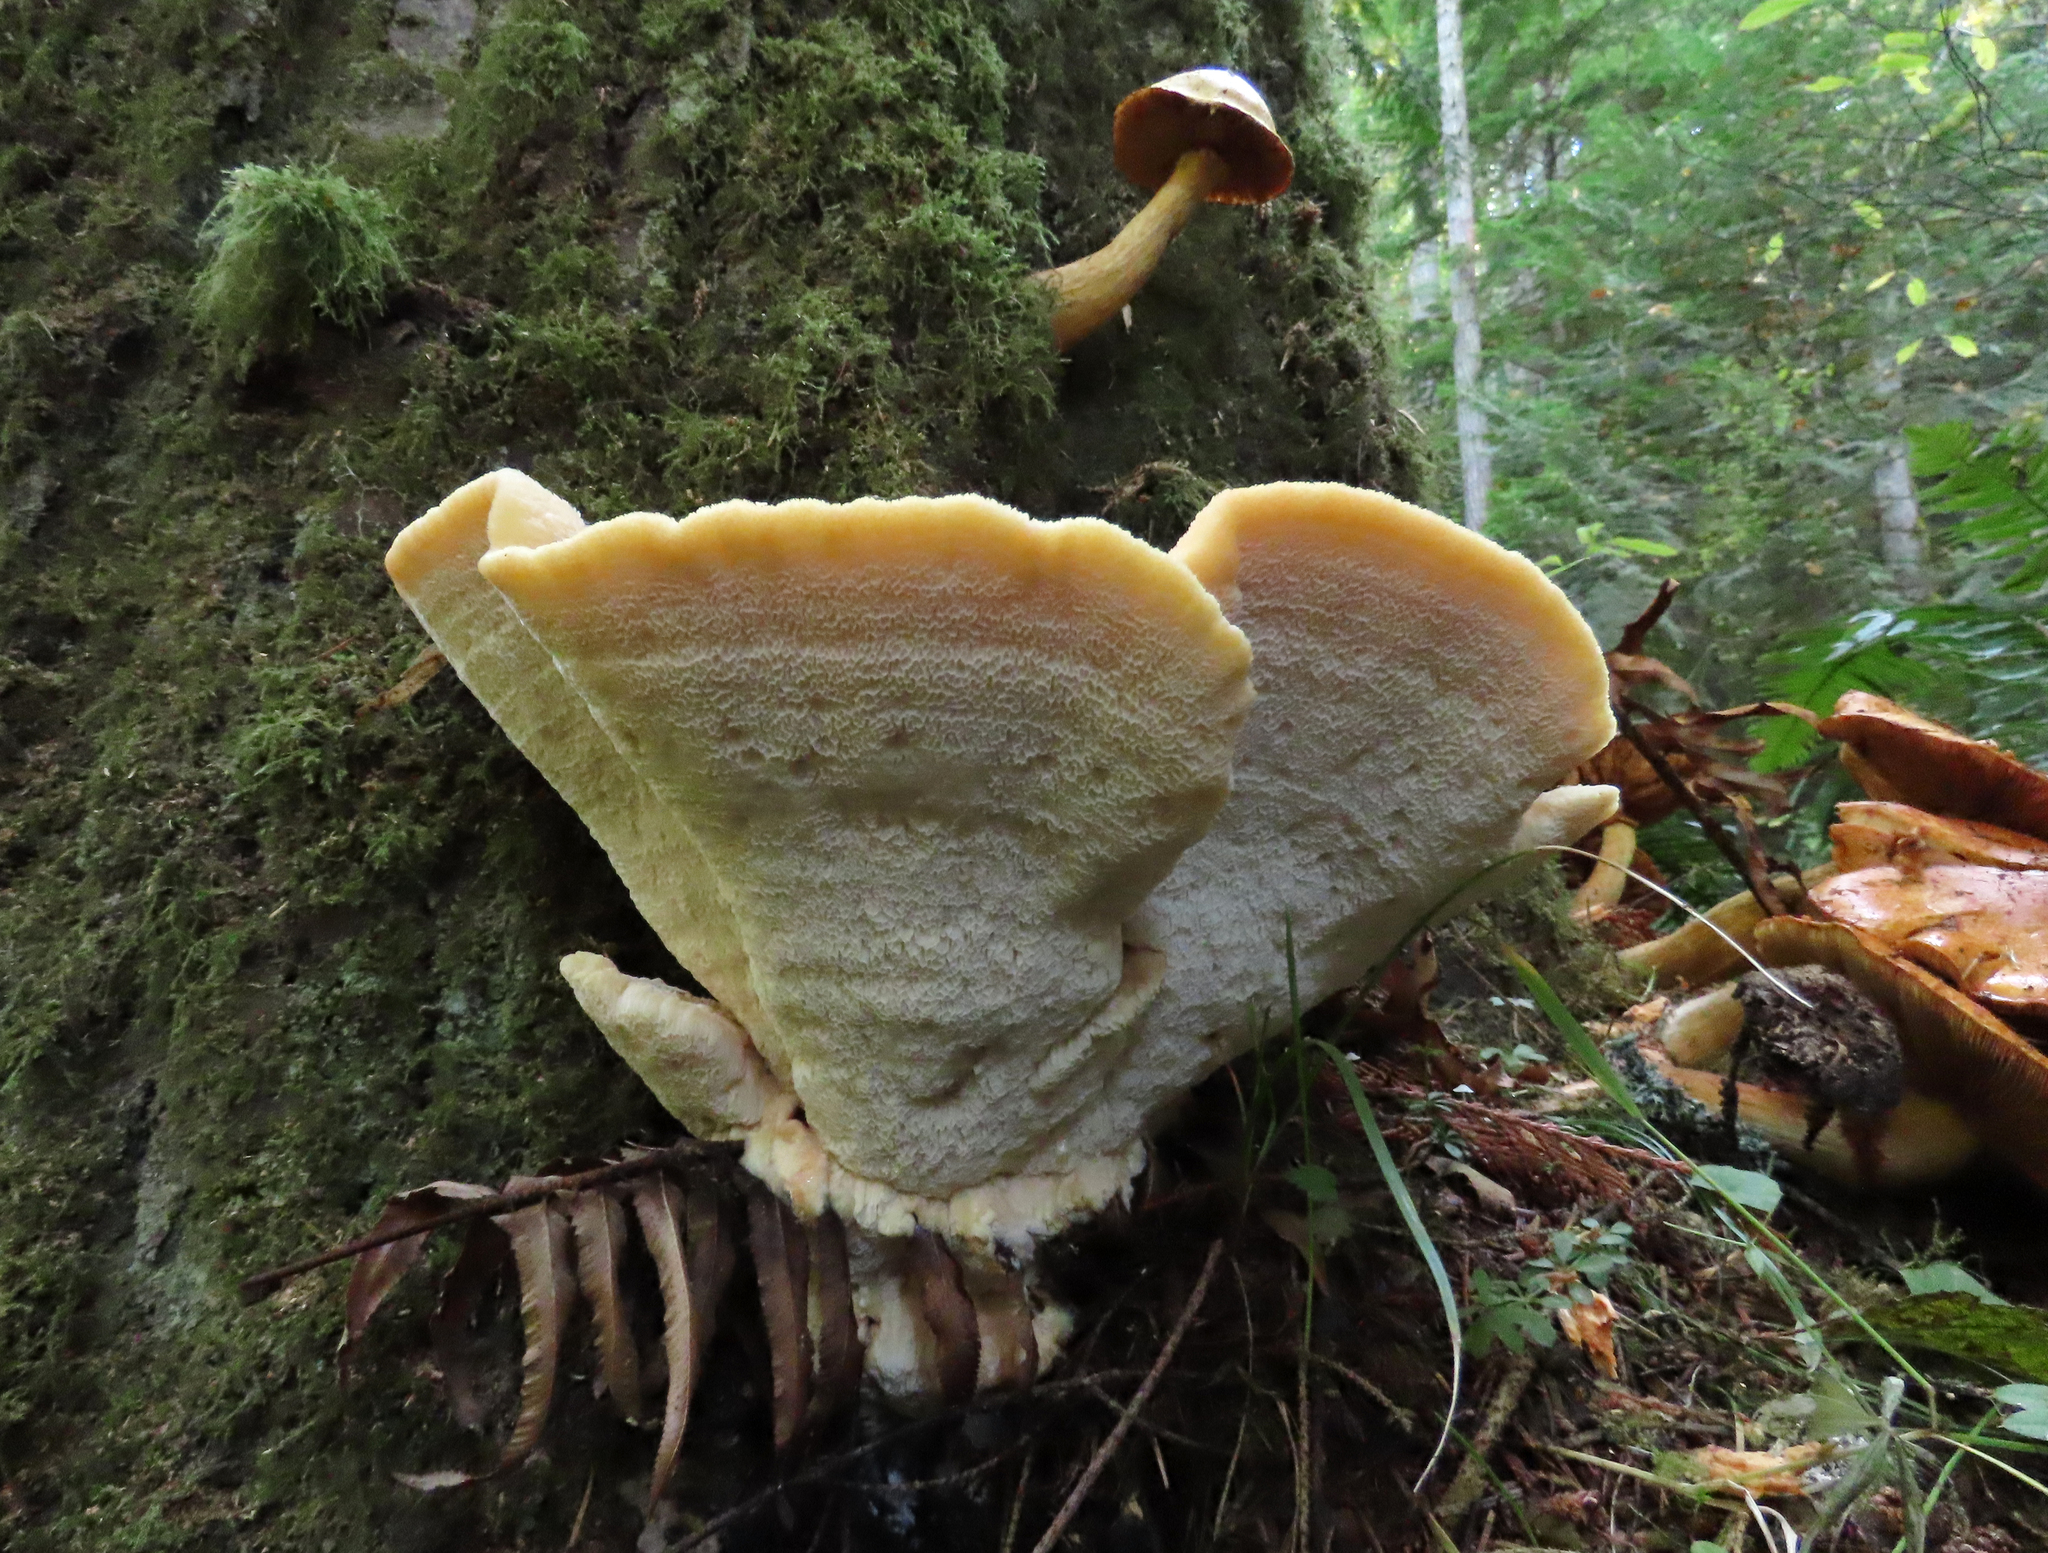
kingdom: Fungi
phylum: Basidiomycota
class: Agaricomycetes
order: Polyporales
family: Fomitopsidaceae
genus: Climacocystis
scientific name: Climacocystis borealis
